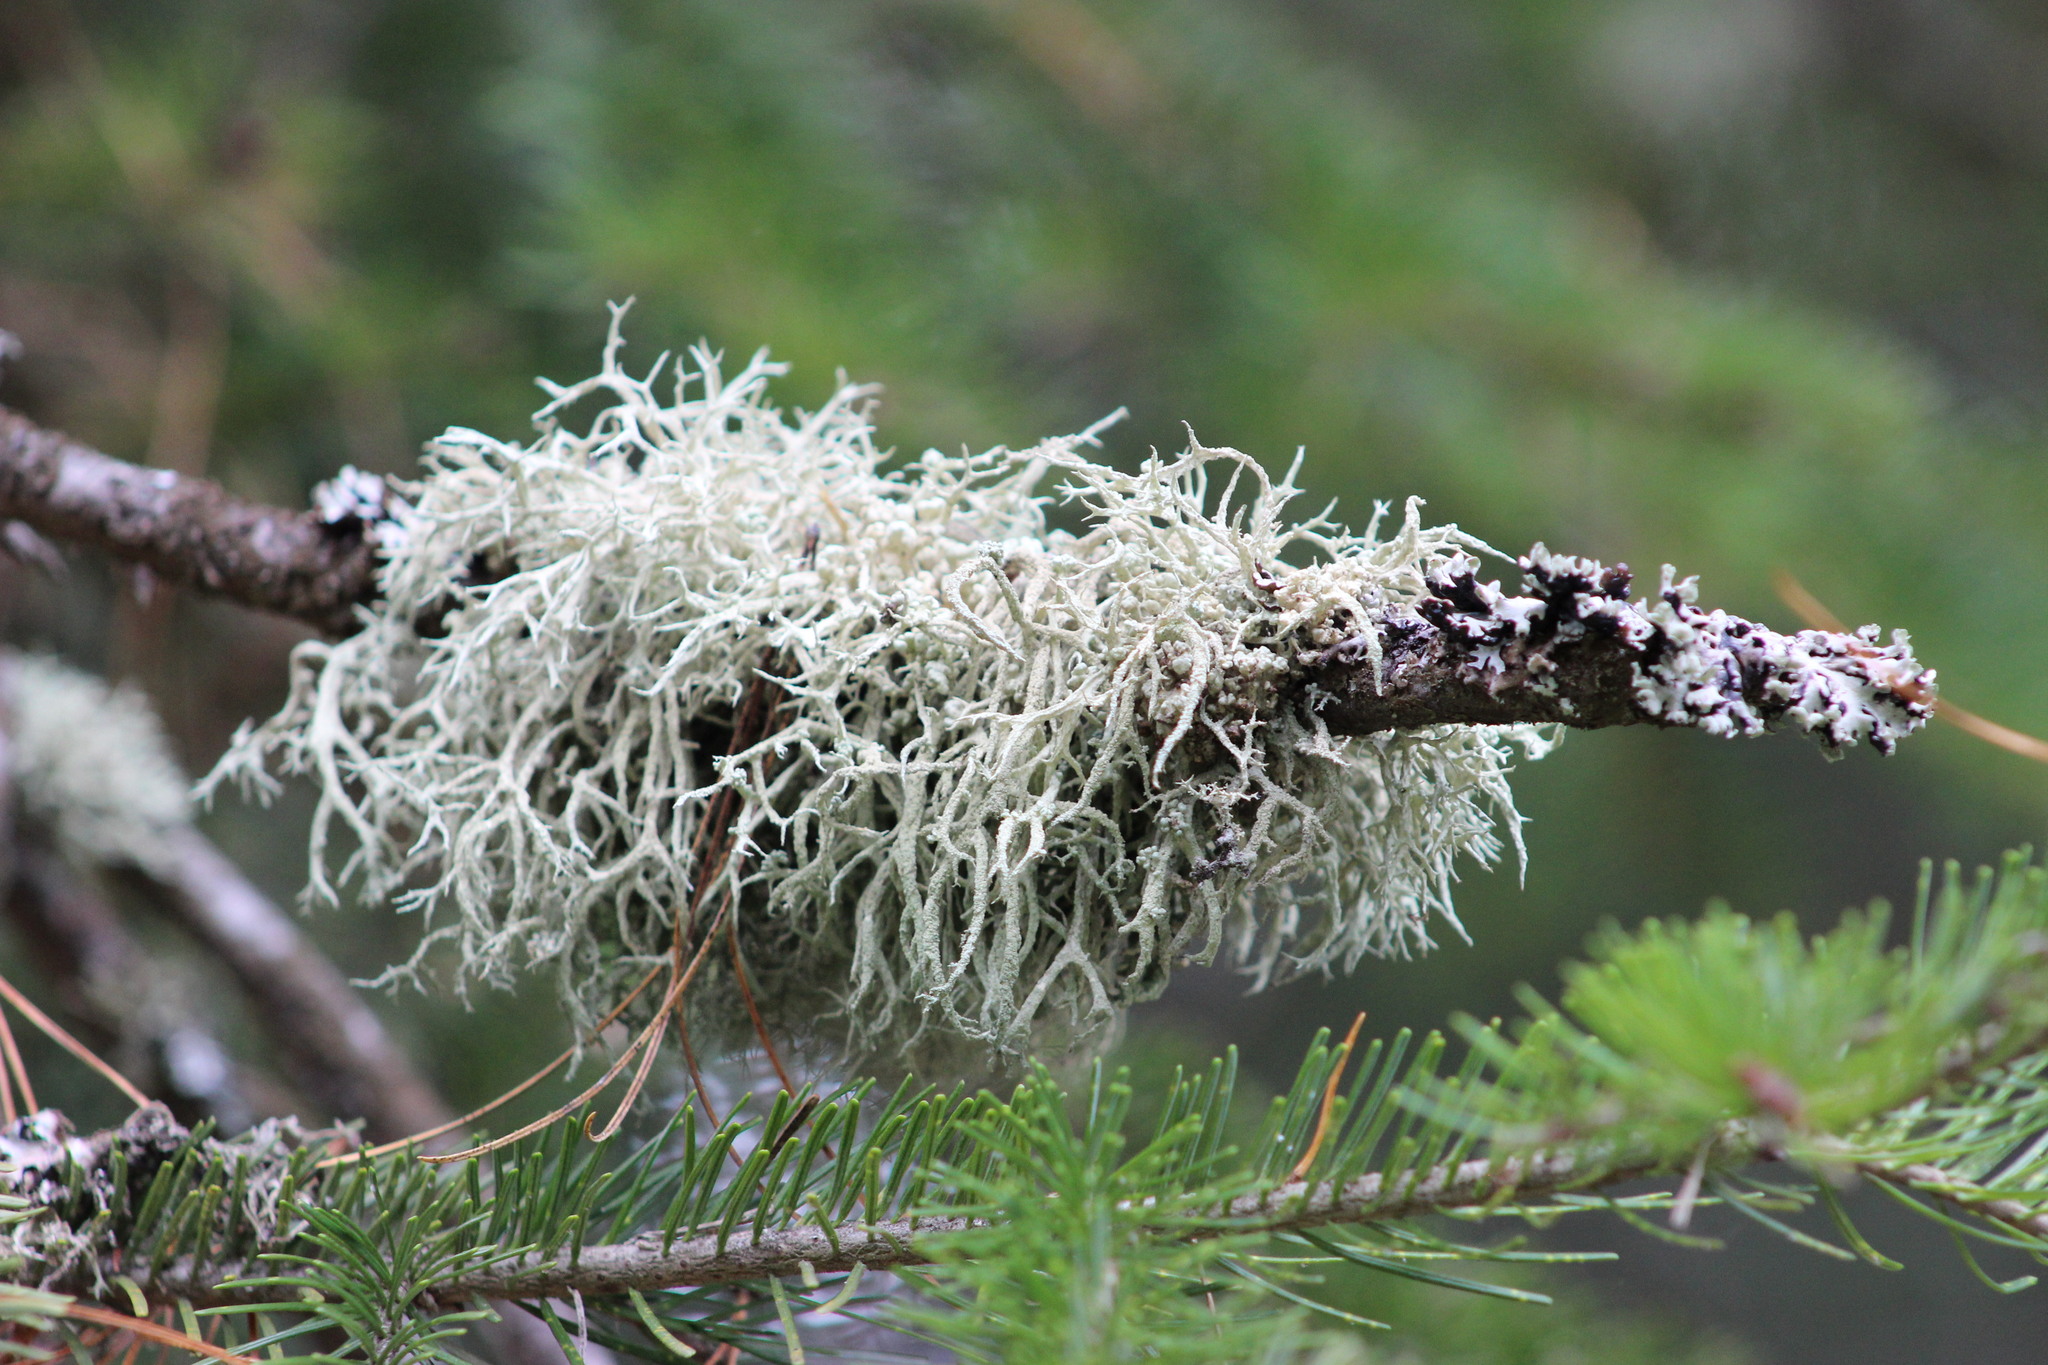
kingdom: Fungi
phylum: Ascomycota
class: Lecanoromycetes
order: Lecanorales
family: Parmeliaceae
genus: Evernia
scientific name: Evernia mesomorpha
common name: Boreal oak moss lichen
